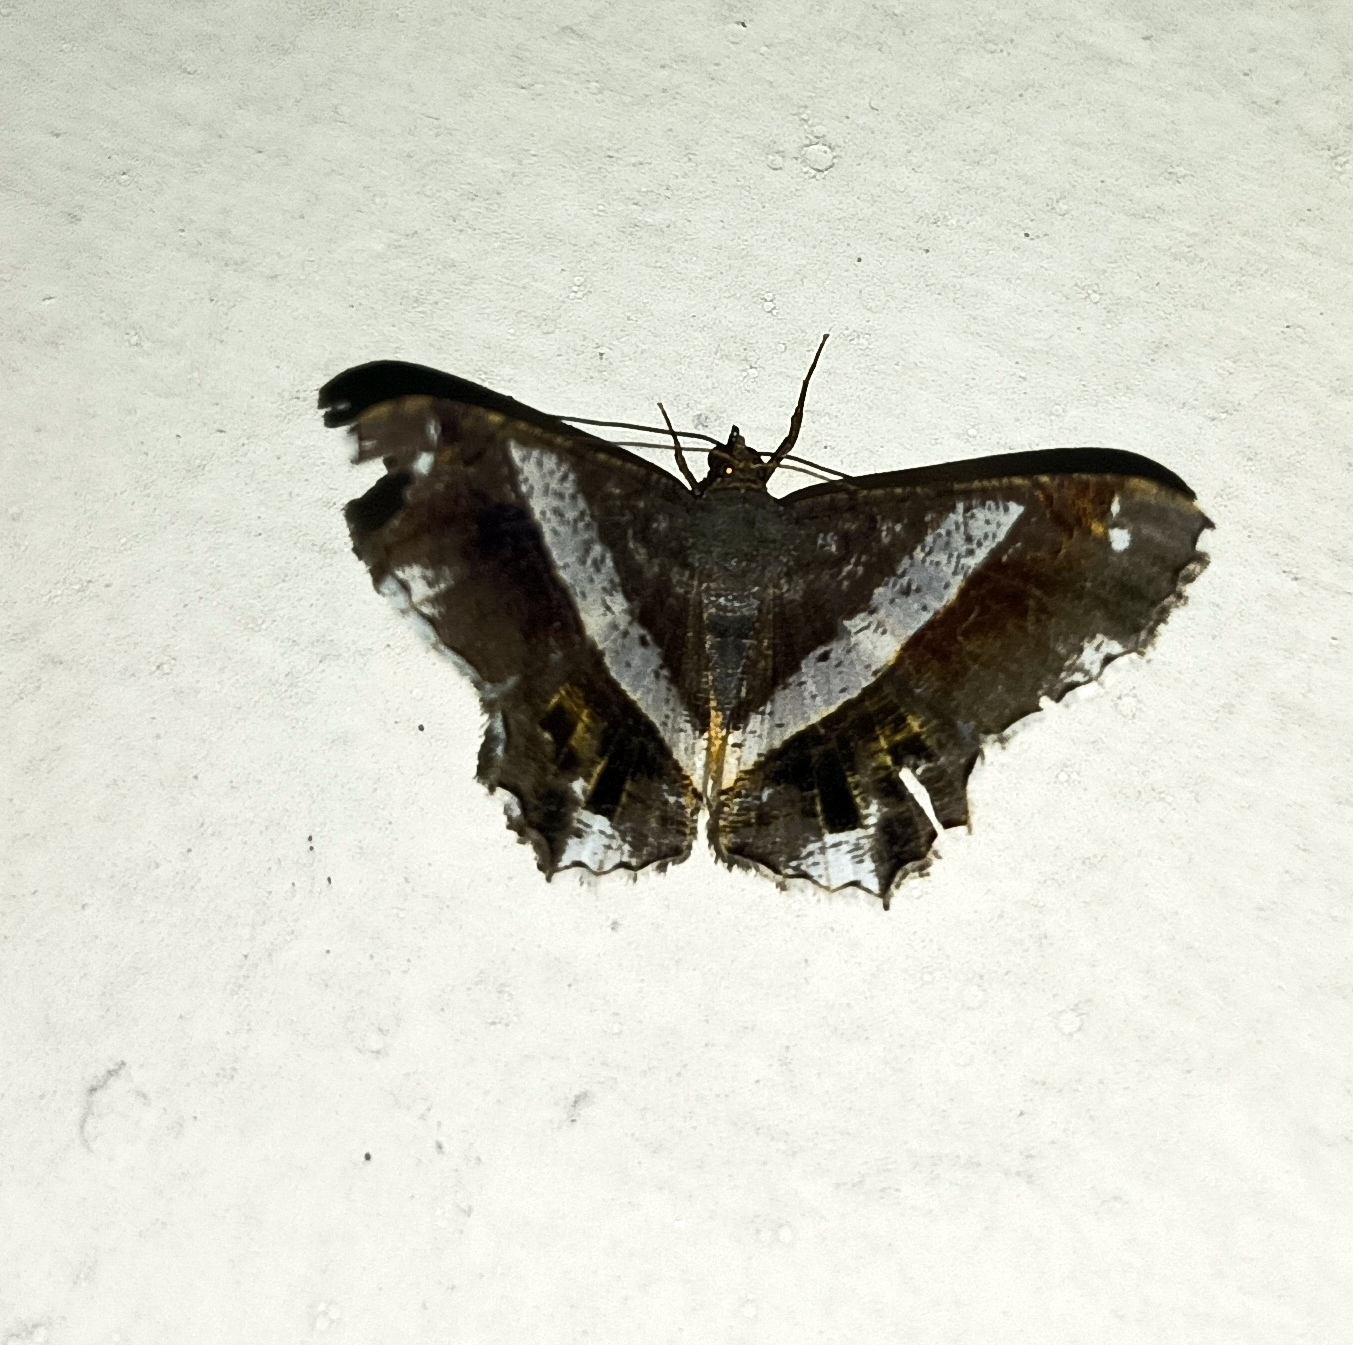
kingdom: Animalia
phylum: Arthropoda
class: Insecta
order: Lepidoptera
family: Geometridae
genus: Chiasmia
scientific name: Chiasmia nora
